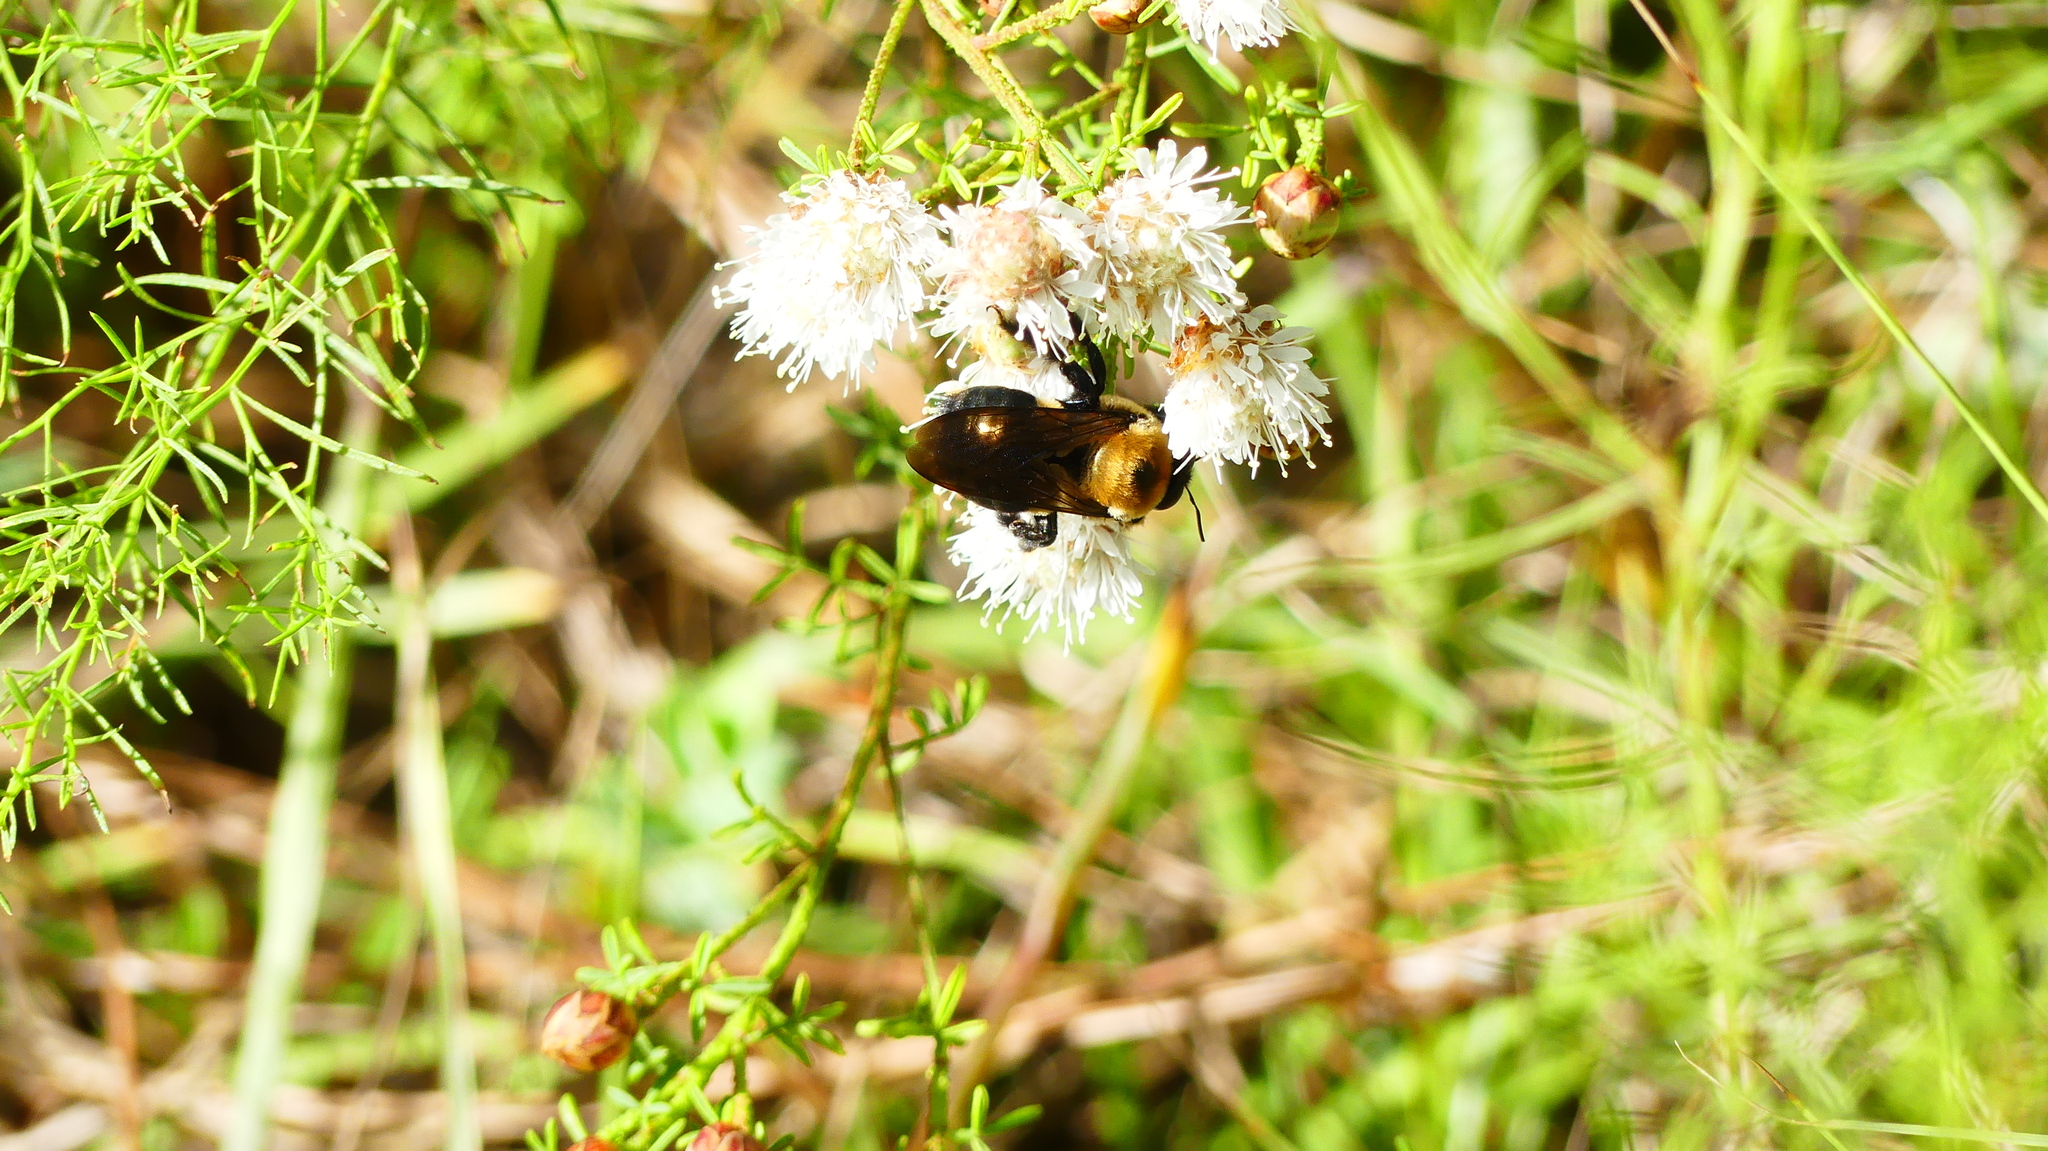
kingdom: Animalia
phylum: Arthropoda
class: Insecta
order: Hymenoptera
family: Apidae
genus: Xylocopa
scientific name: Xylocopa virginica
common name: Carpenter bee
